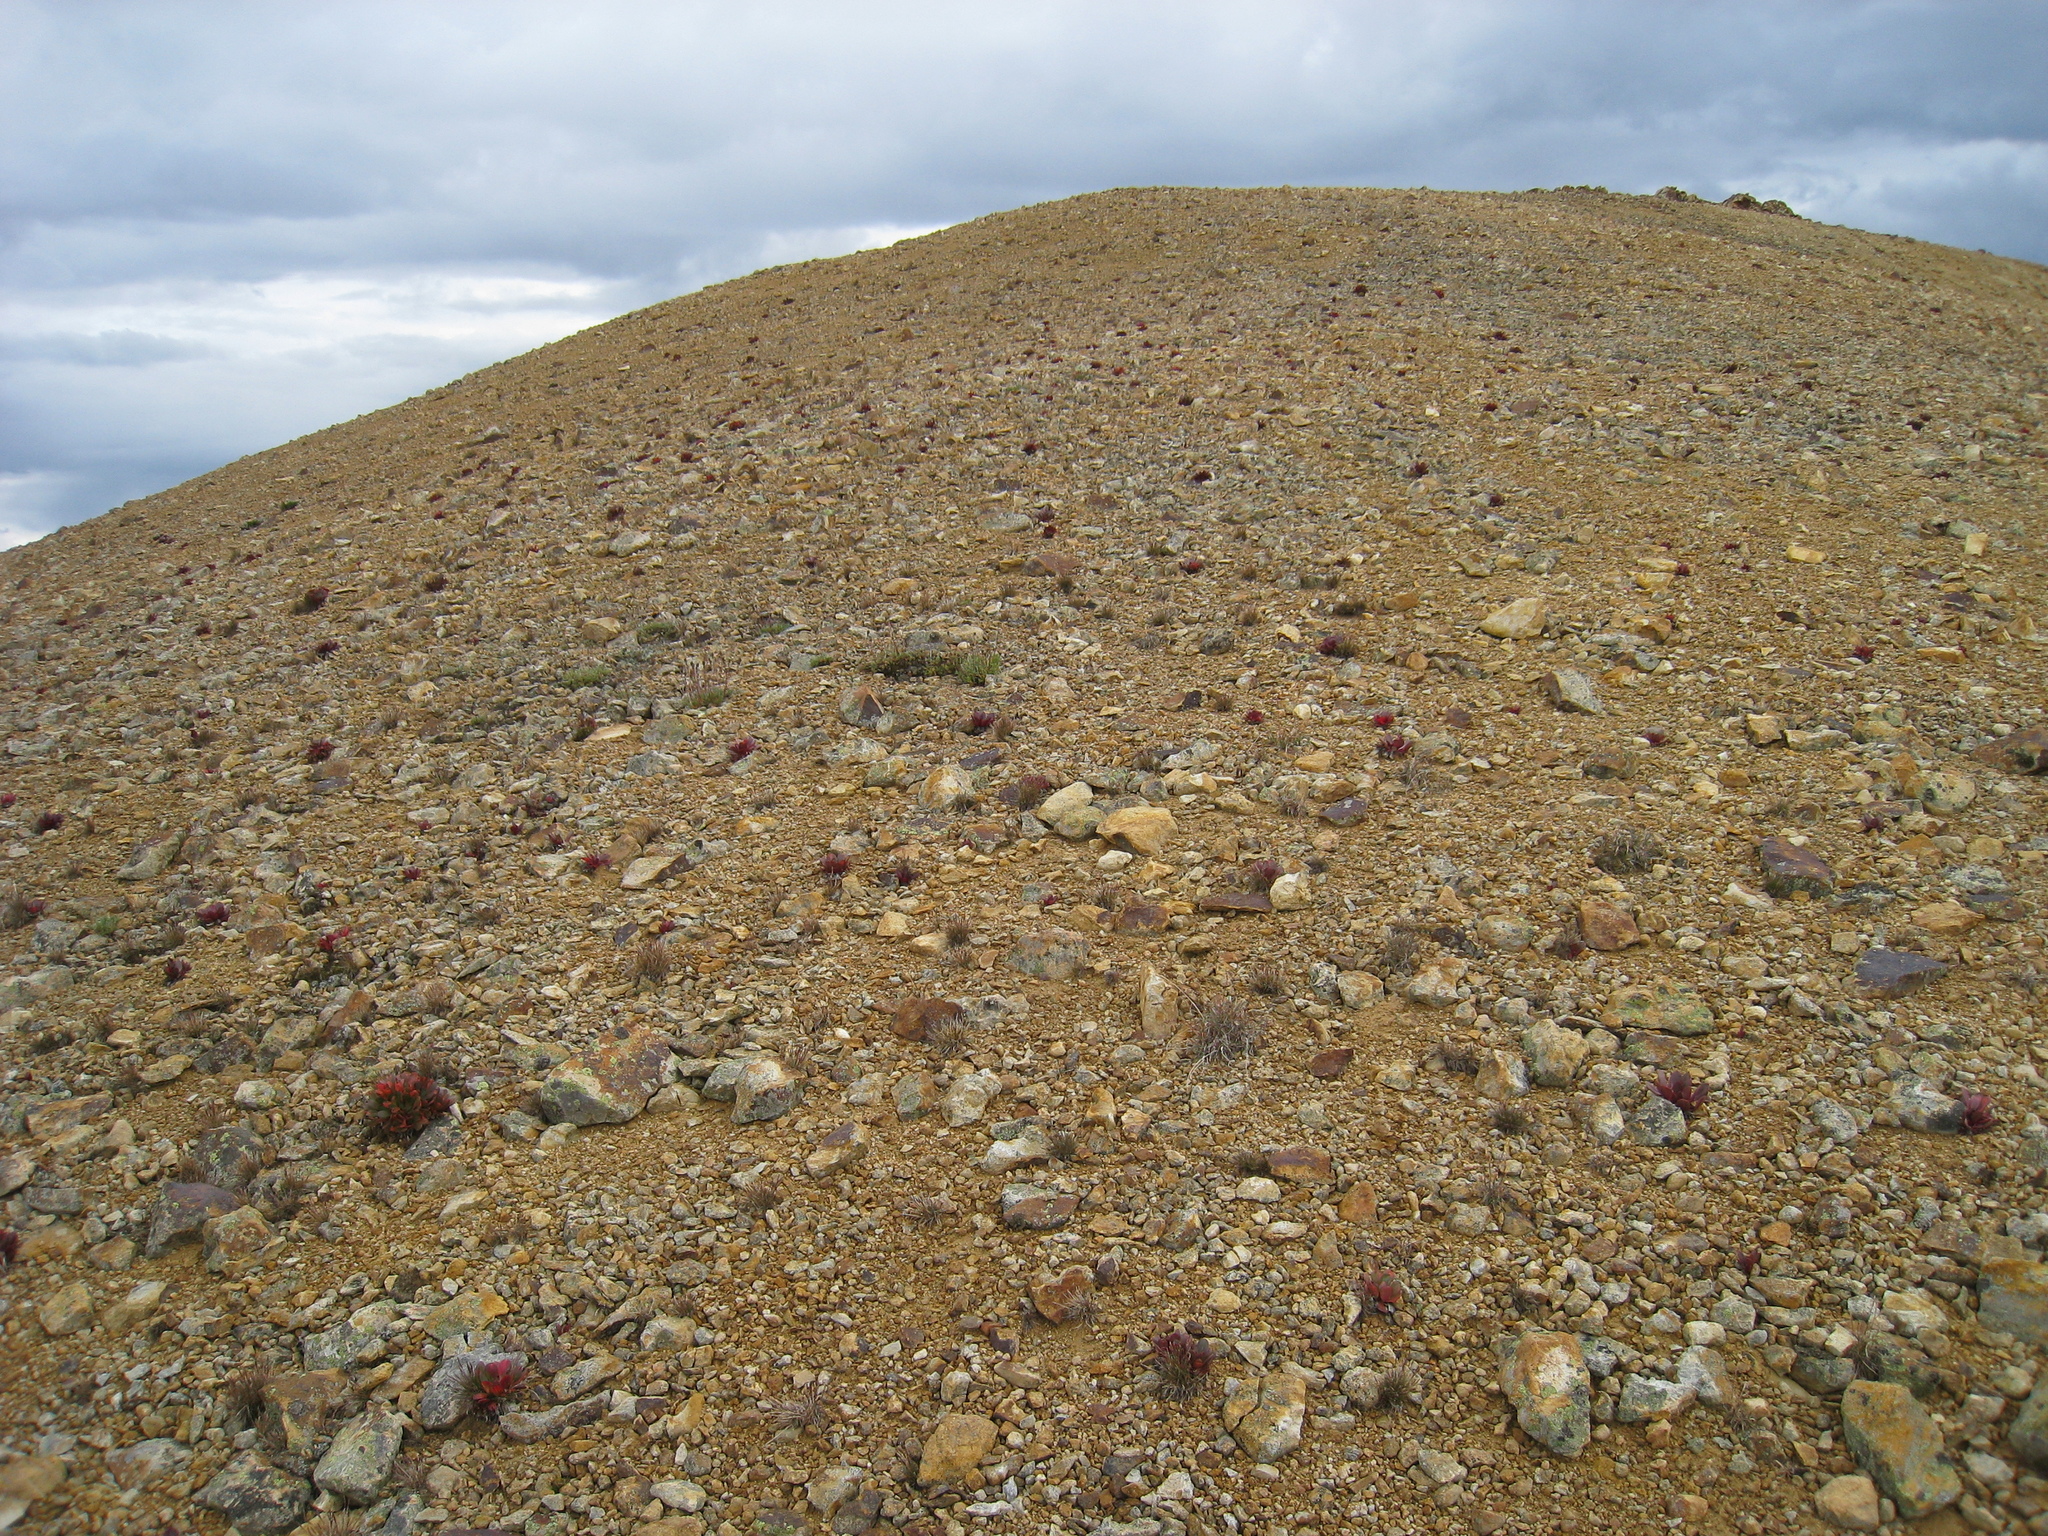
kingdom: Plantae
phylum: Tracheophyta
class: Magnoliopsida
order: Caryophyllales
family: Montiaceae
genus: Claytonia
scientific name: Claytonia megarhiza
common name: Alpine spring beauty
